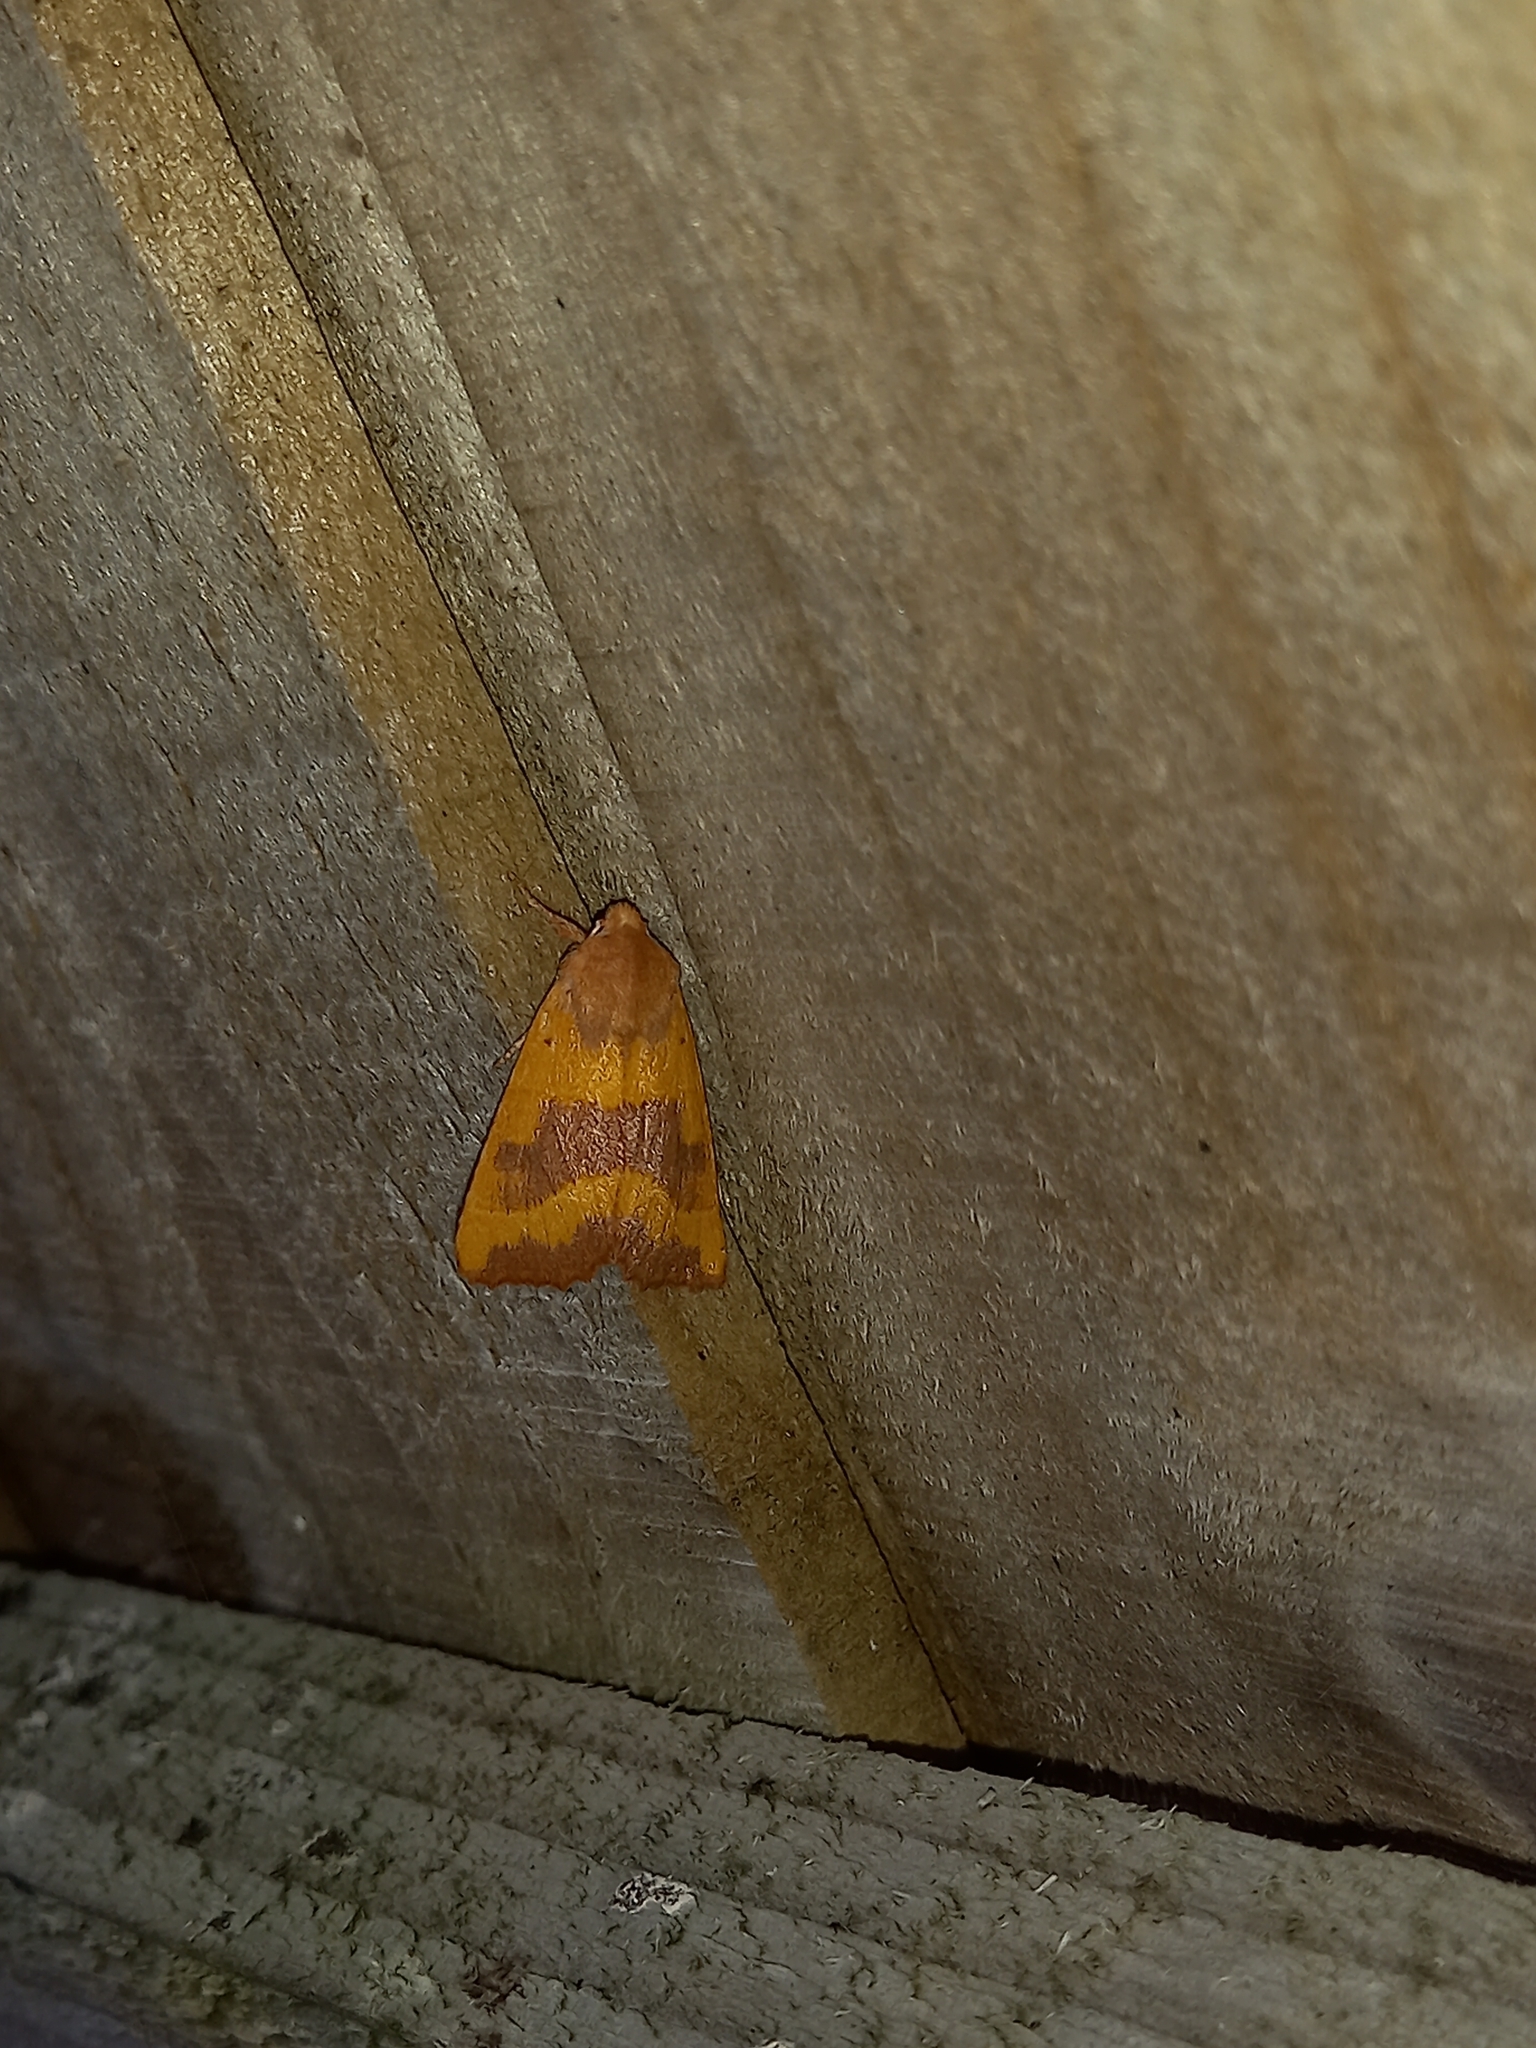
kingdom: Animalia
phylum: Arthropoda
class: Insecta
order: Lepidoptera
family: Noctuidae
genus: Atethmia
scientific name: Atethmia centrago
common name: Centre-barred sallow
